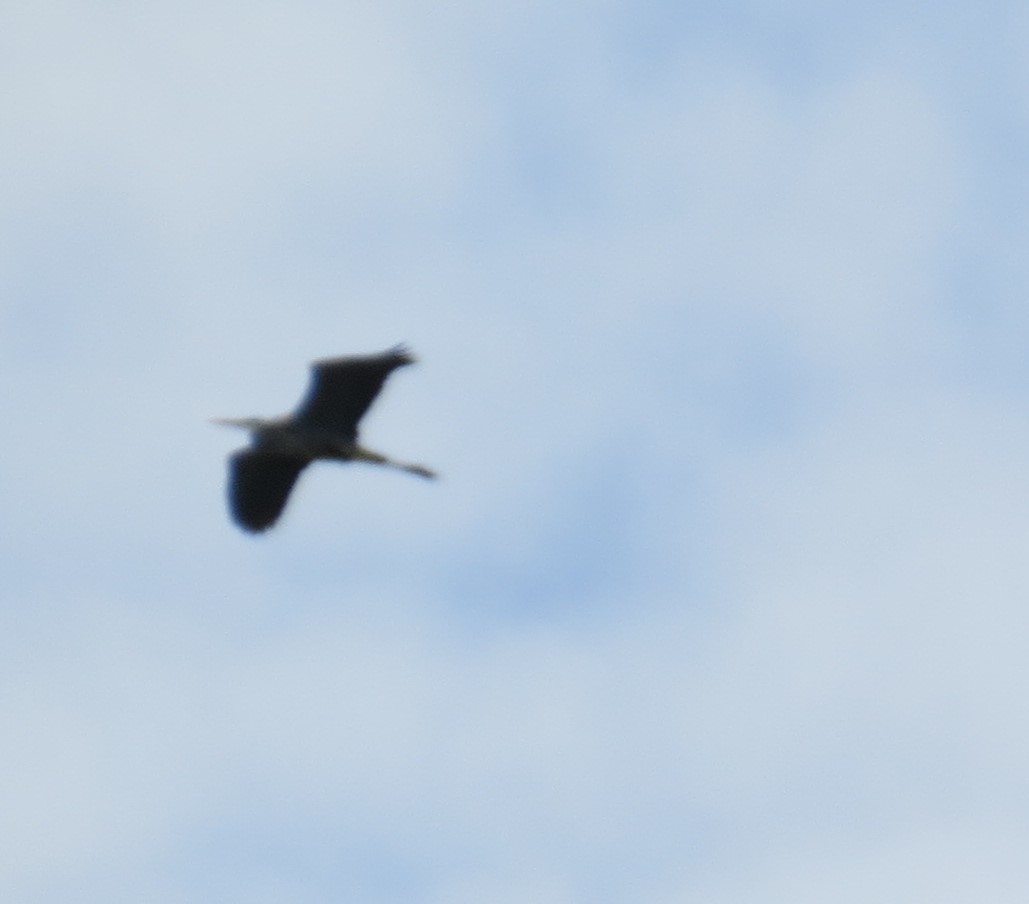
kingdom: Animalia
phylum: Chordata
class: Aves
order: Pelecaniformes
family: Ardeidae
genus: Ardea
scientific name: Ardea herodias
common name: Great blue heron
